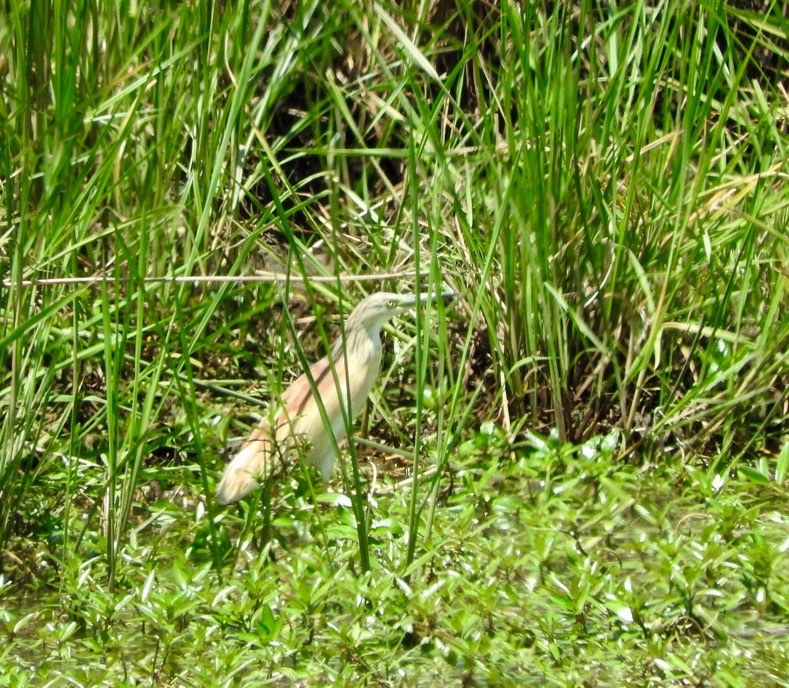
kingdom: Animalia
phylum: Chordata
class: Aves
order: Pelecaniformes
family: Ardeidae
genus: Ardeola
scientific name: Ardeola ralloides
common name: Squacco heron
